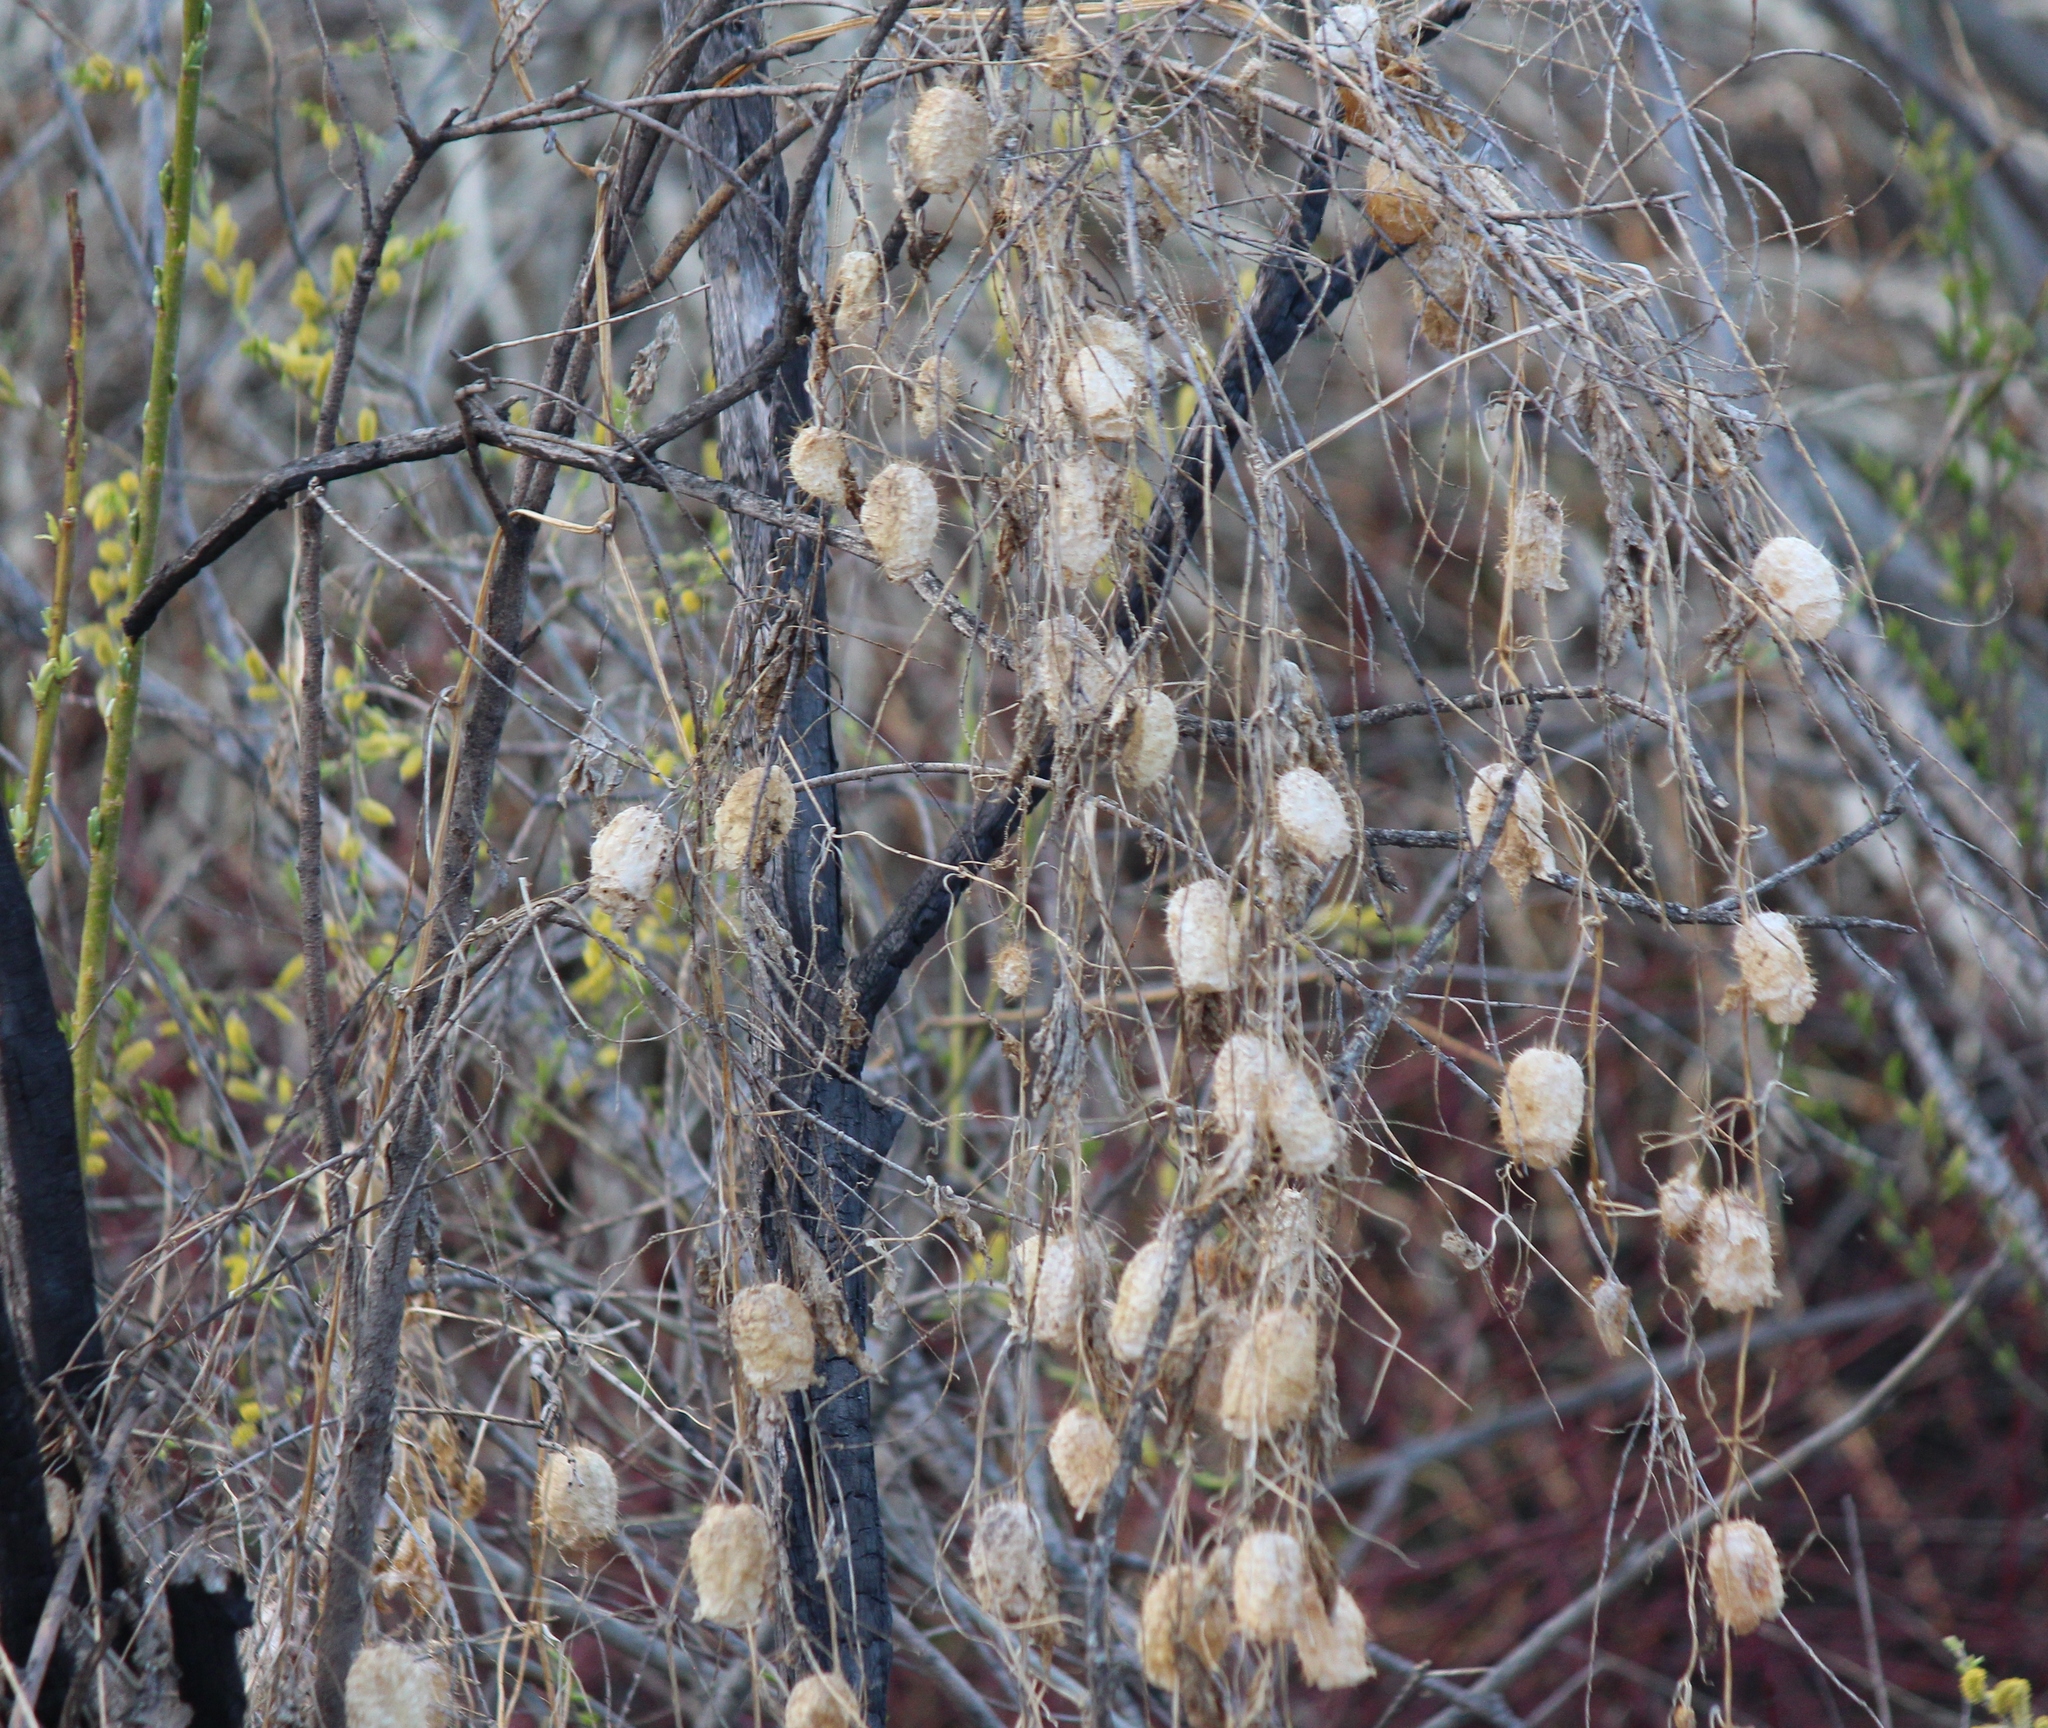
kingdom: Plantae
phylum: Tracheophyta
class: Magnoliopsida
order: Cucurbitales
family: Cucurbitaceae
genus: Echinocystis
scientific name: Echinocystis lobata
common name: Wild cucumber
